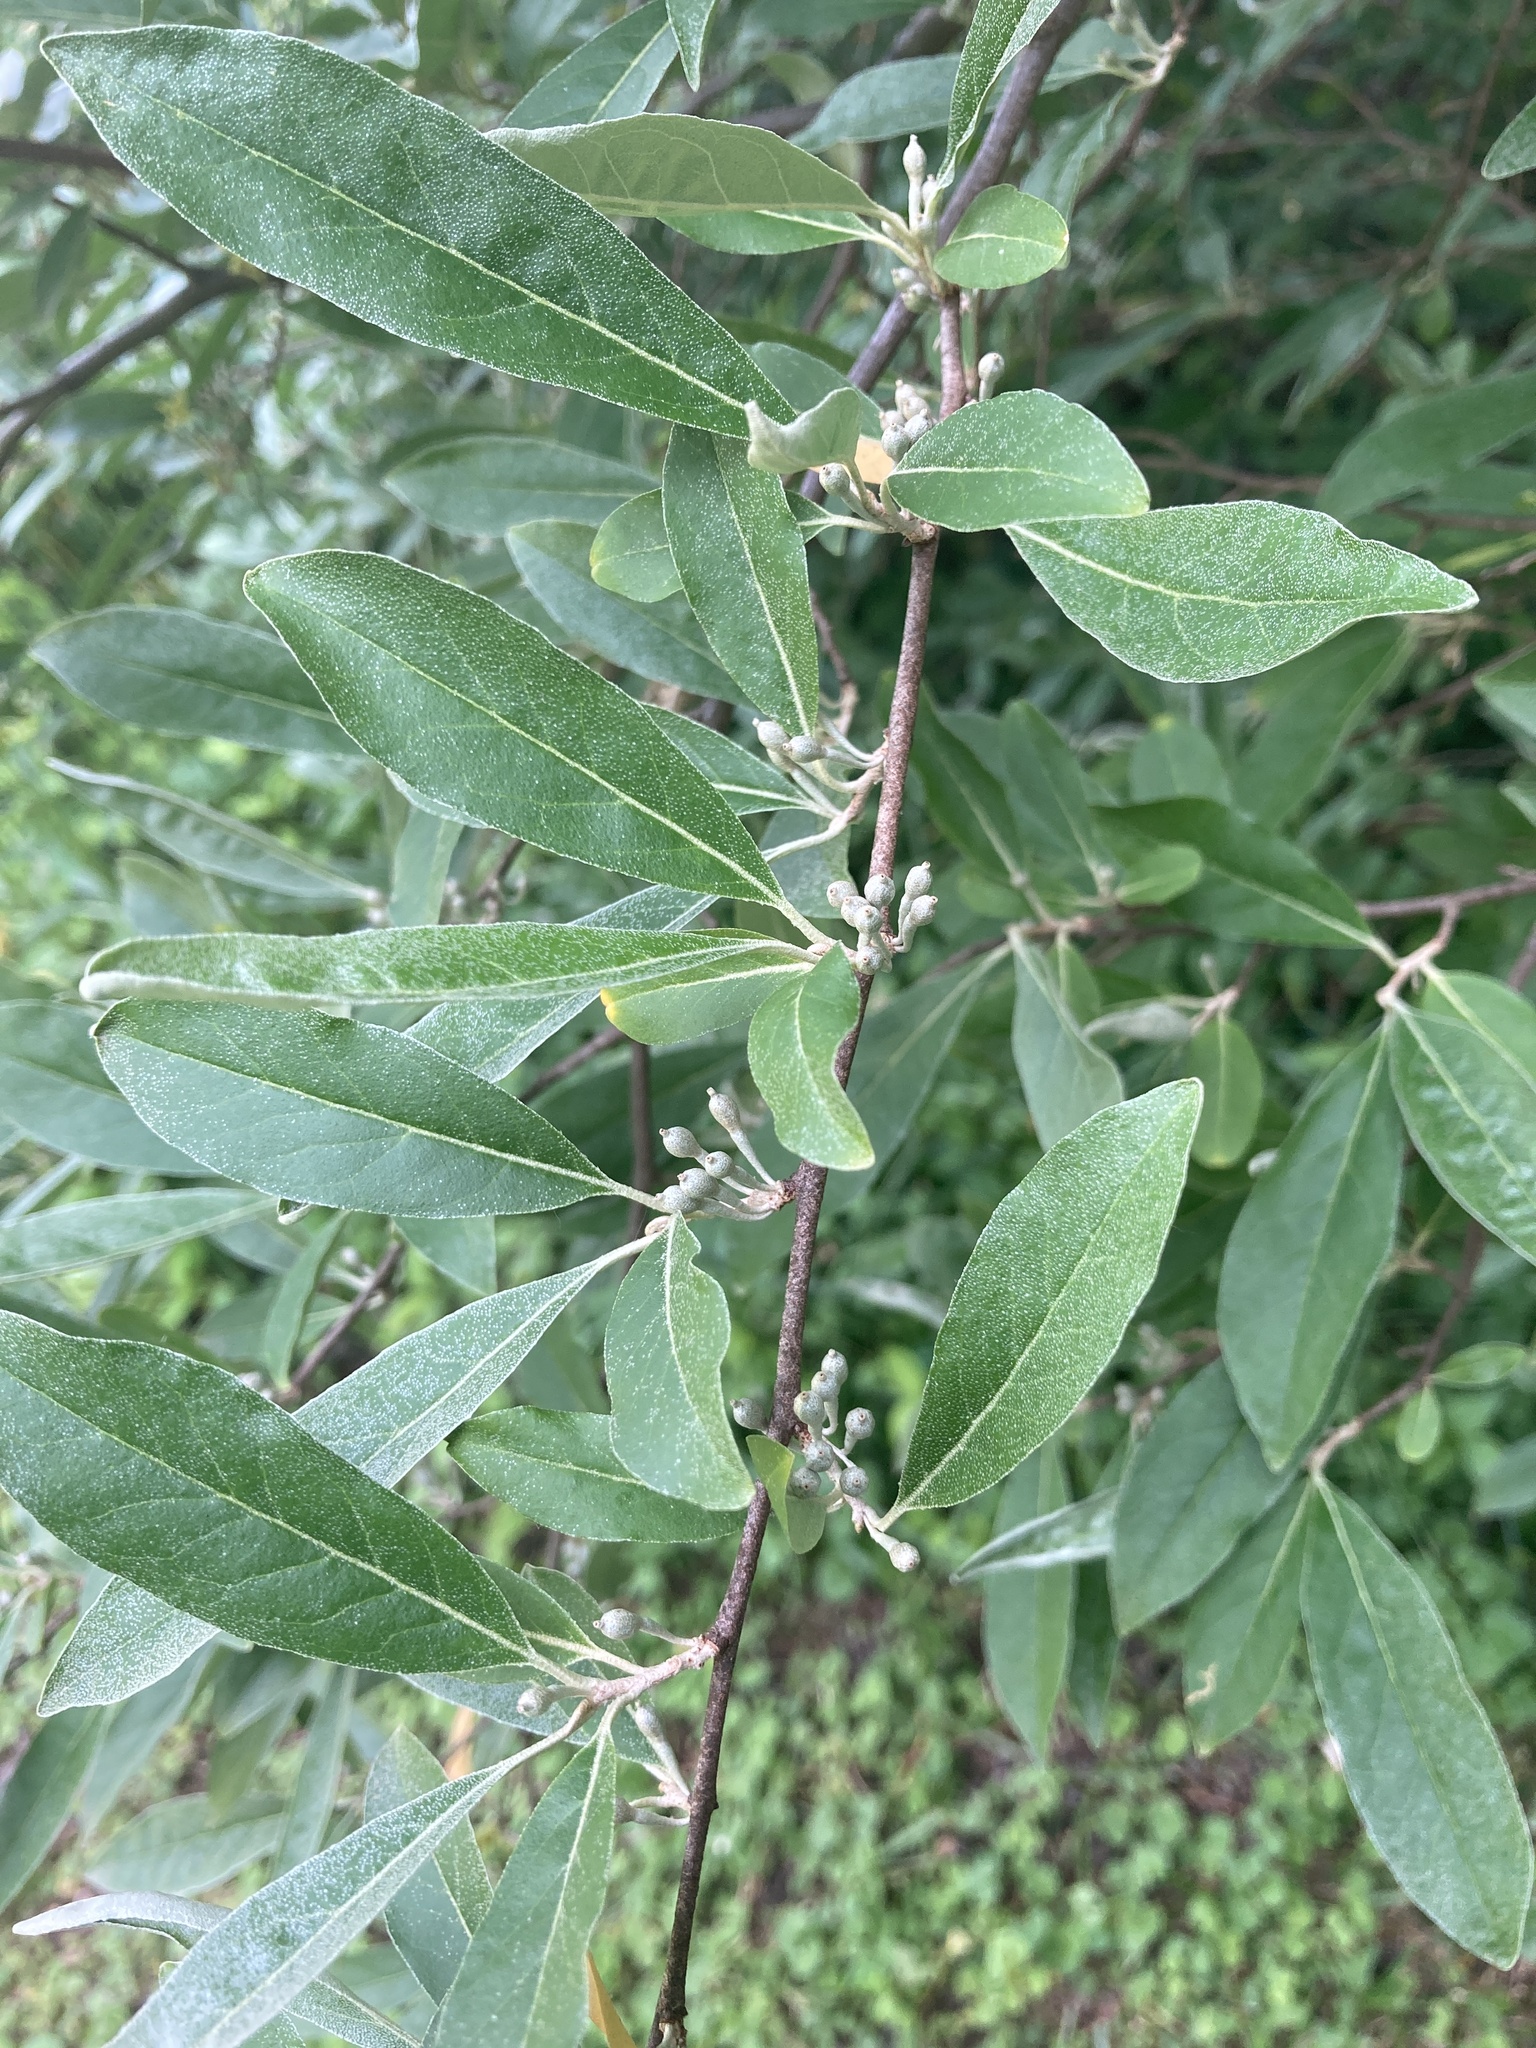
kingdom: Plantae
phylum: Tracheophyta
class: Magnoliopsida
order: Rosales
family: Elaeagnaceae
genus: Elaeagnus
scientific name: Elaeagnus umbellata
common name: Autumn olive
